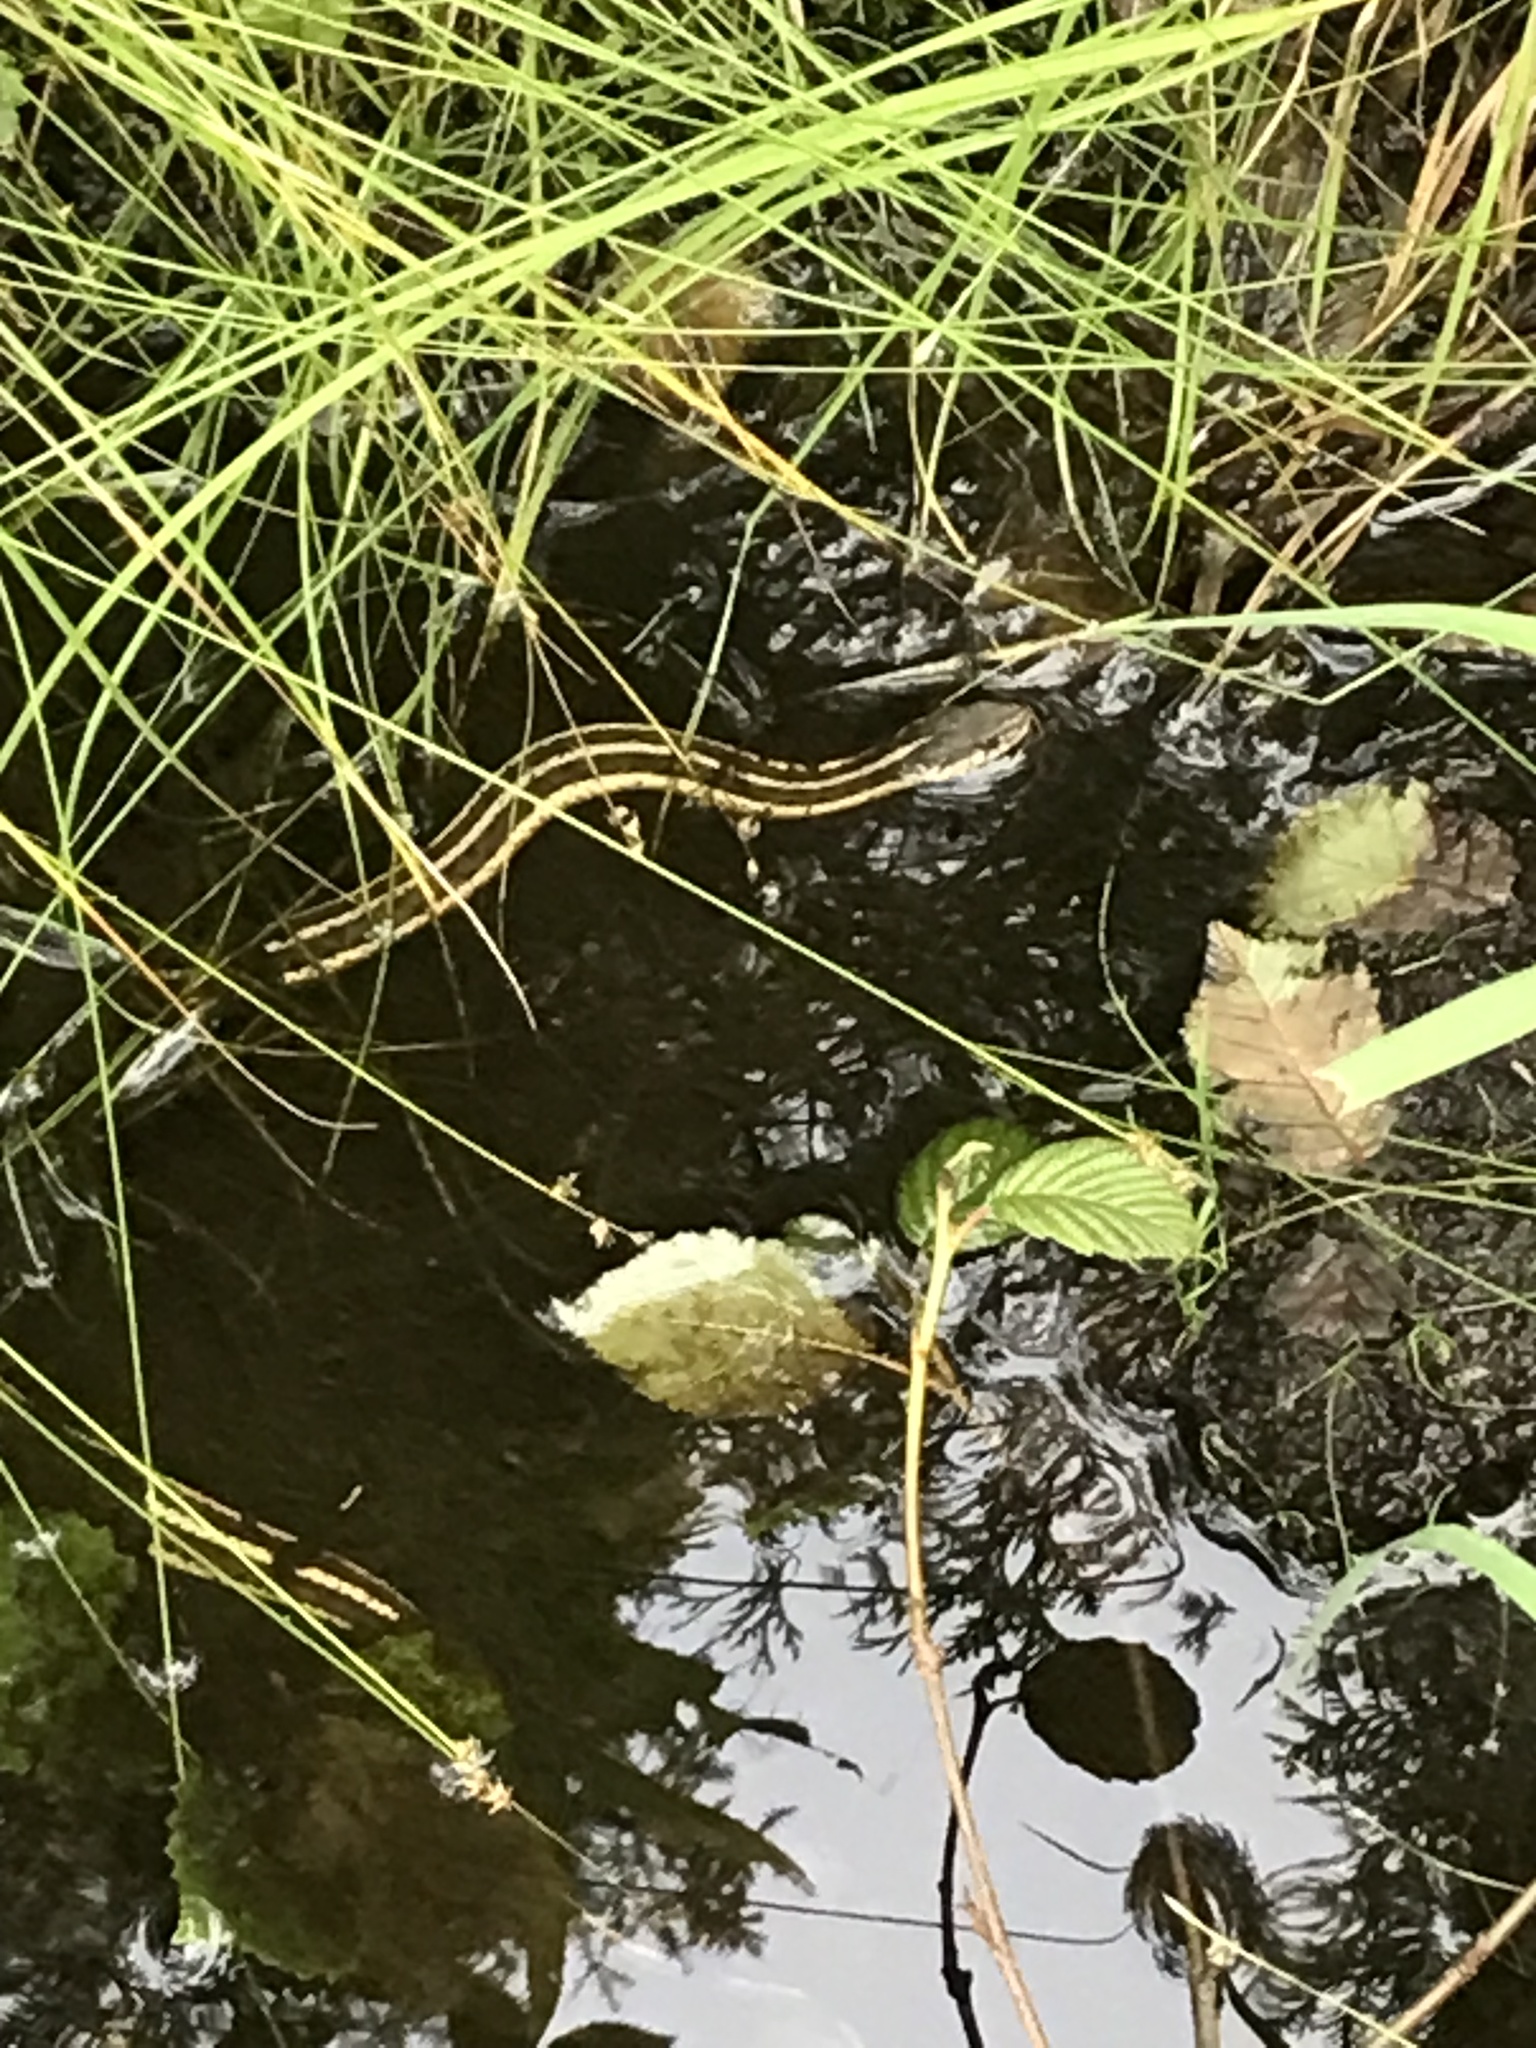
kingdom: Animalia
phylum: Chordata
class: Squamata
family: Colubridae
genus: Thamnophis
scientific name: Thamnophis sirtalis
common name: Common garter snake
